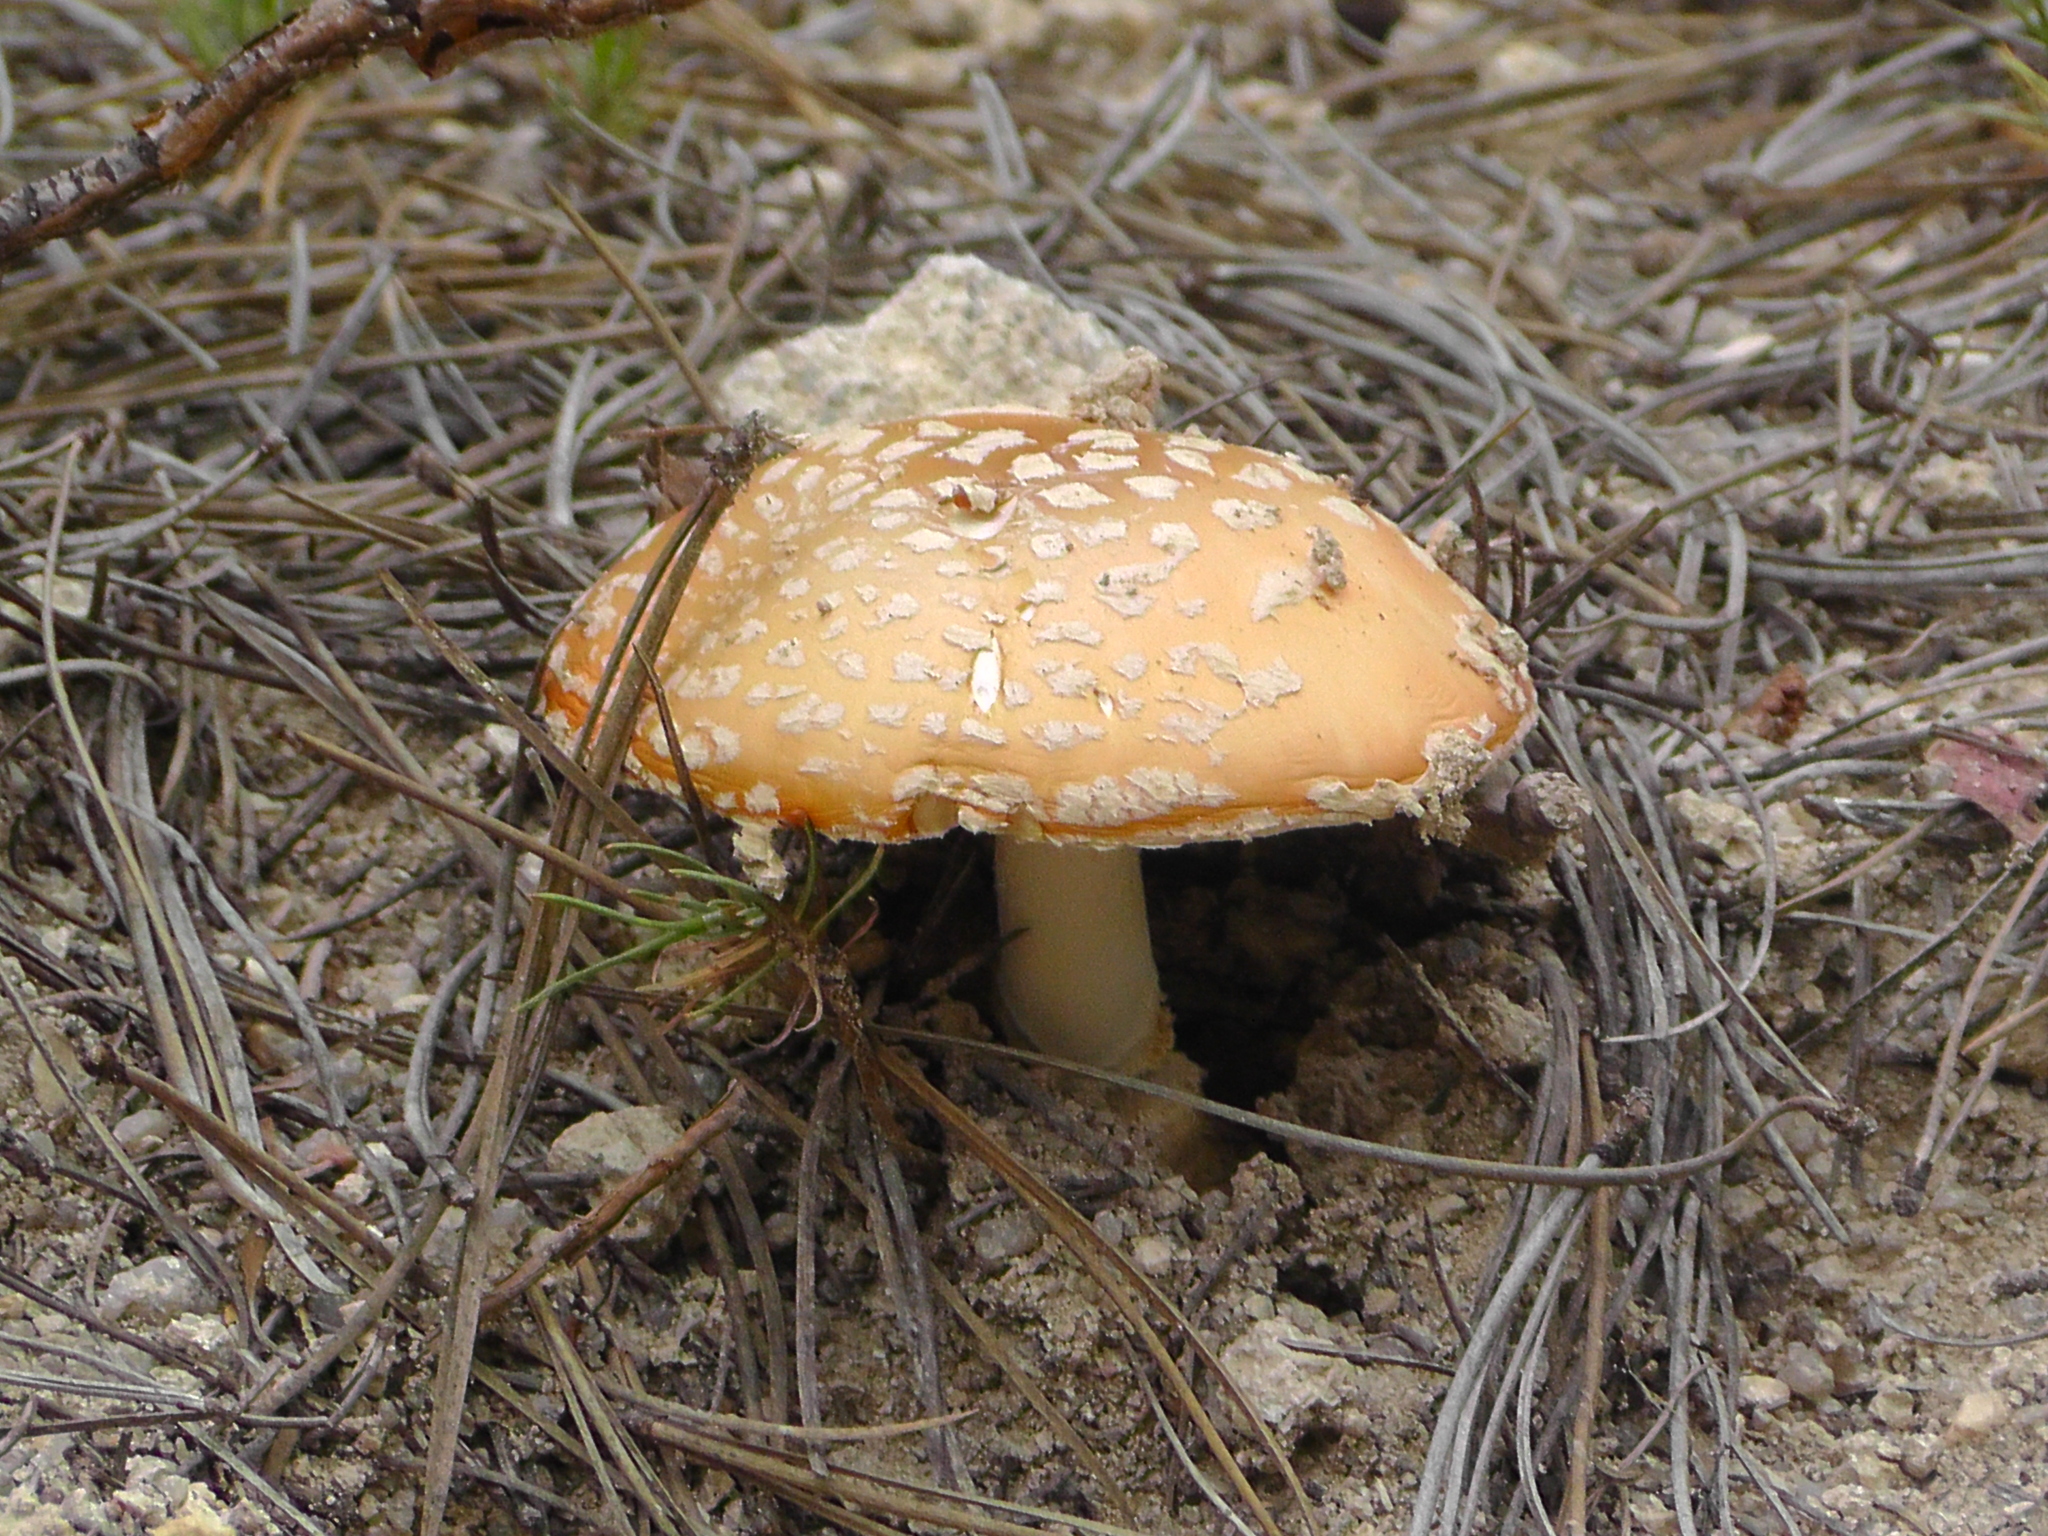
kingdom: Fungi
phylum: Basidiomycota
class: Agaricomycetes
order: Agaricales
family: Amanitaceae
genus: Amanita
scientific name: Amanita muscaria
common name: Fly agaric
